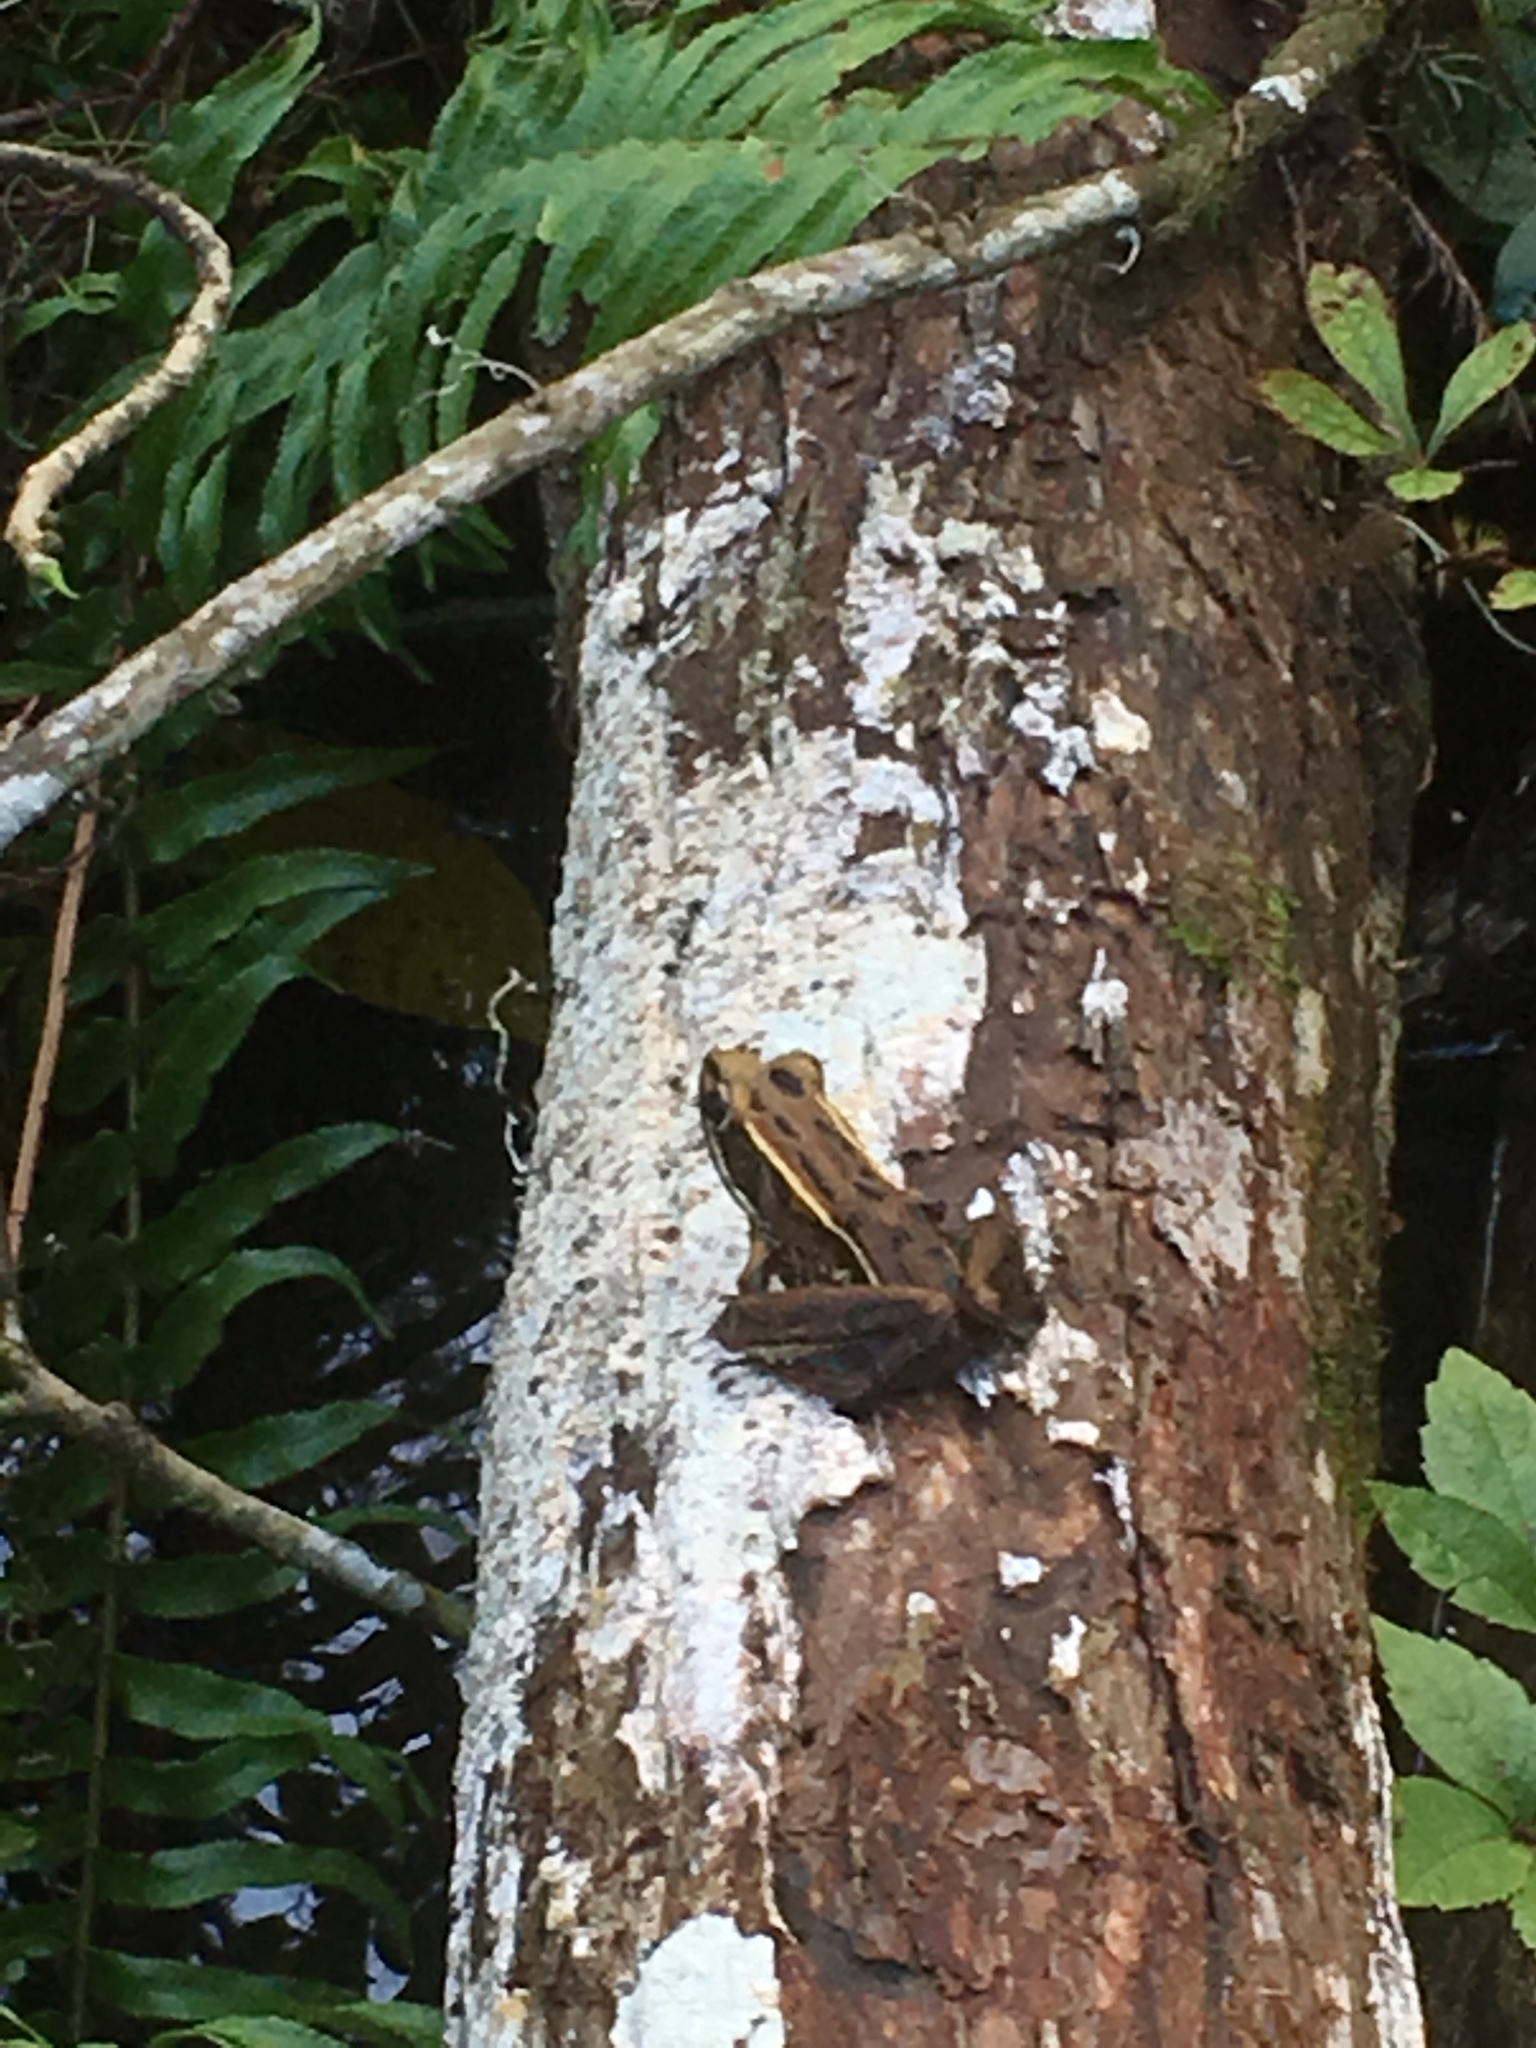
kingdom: Animalia
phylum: Chordata
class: Amphibia
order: Anura
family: Ranidae
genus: Lithobates
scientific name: Lithobates sphenocephalus
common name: Southern leopard frog
